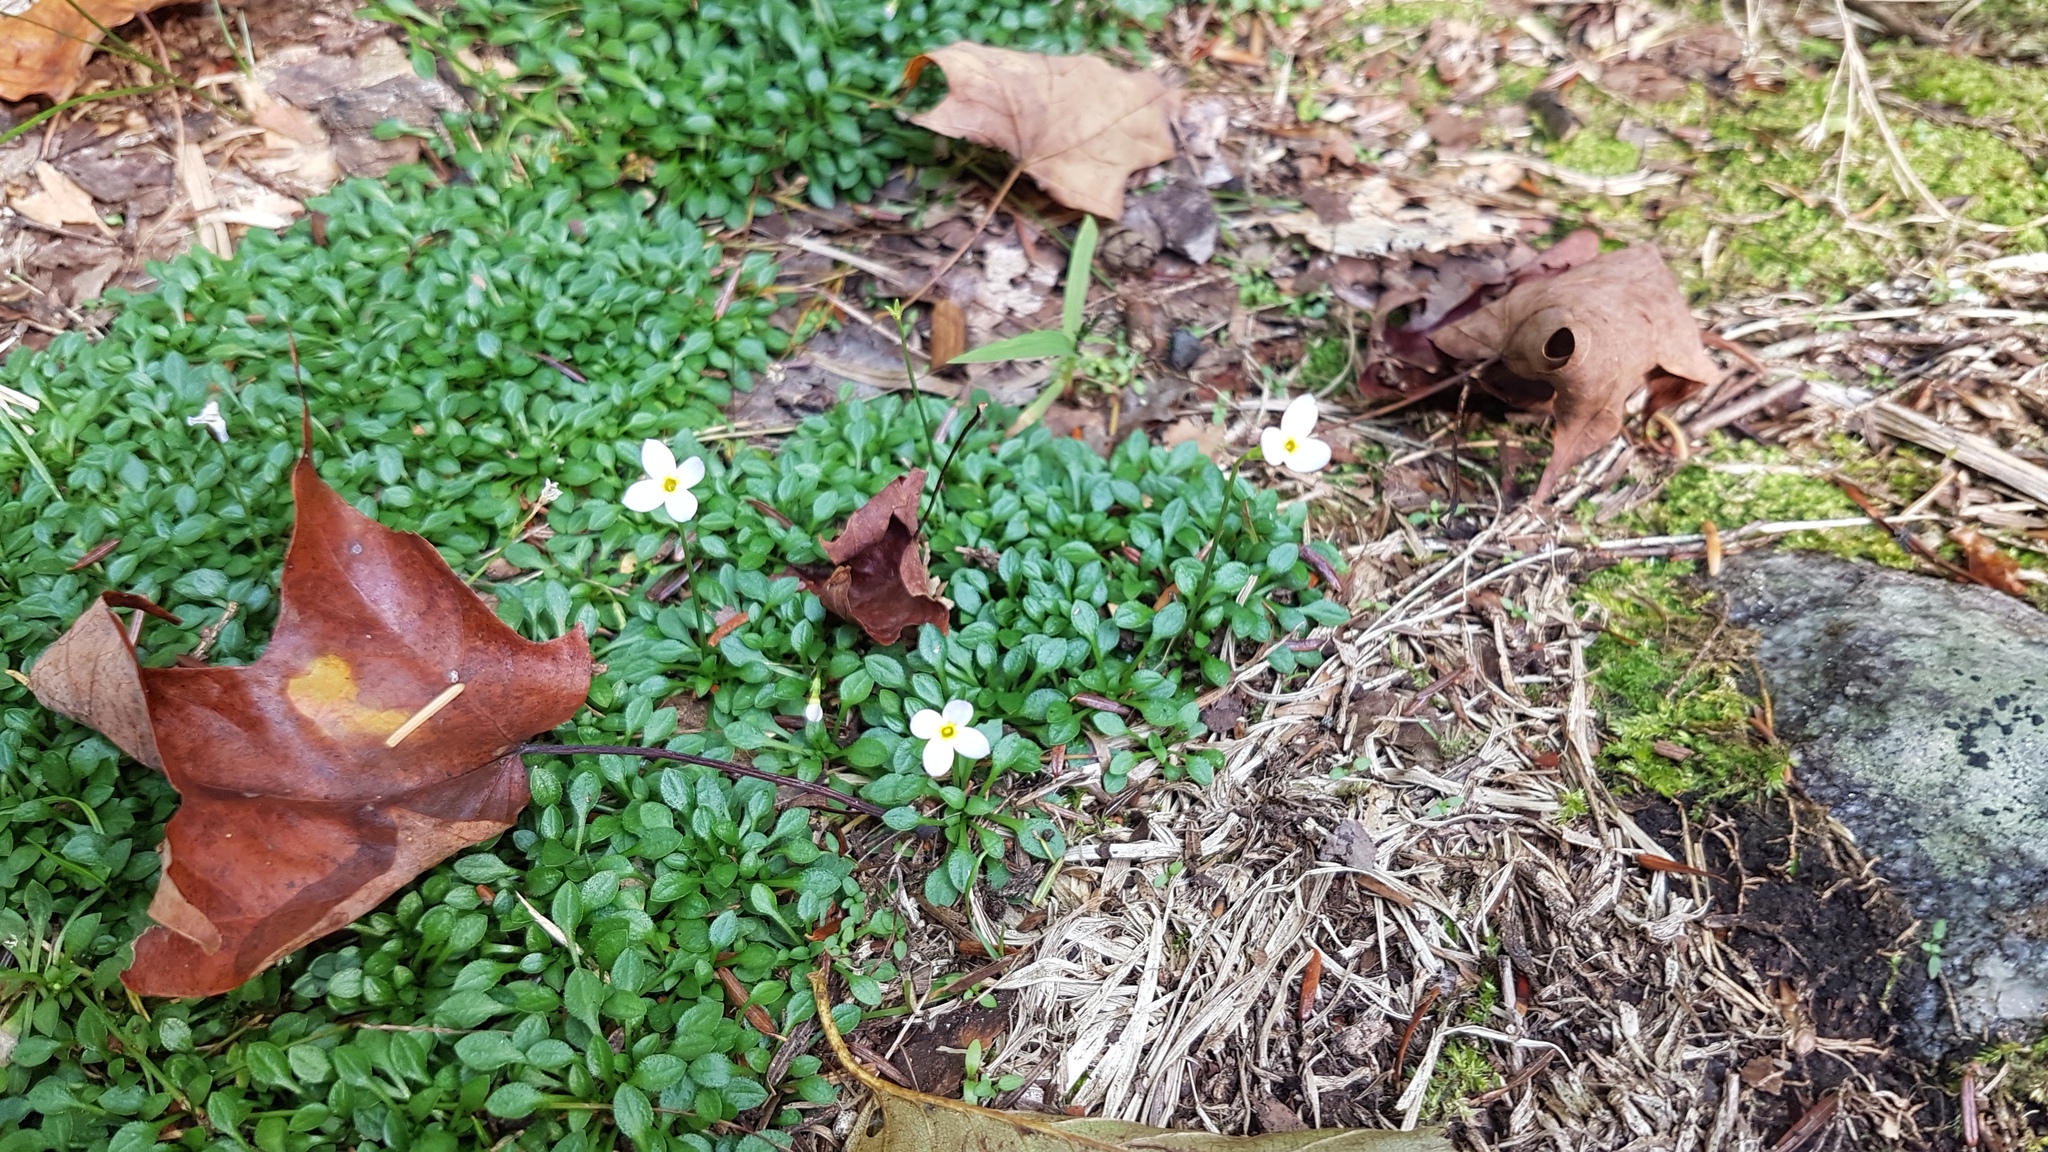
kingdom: Plantae
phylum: Tracheophyta
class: Magnoliopsida
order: Gentianales
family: Rubiaceae
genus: Houstonia
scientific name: Houstonia caerulea
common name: Bluets
